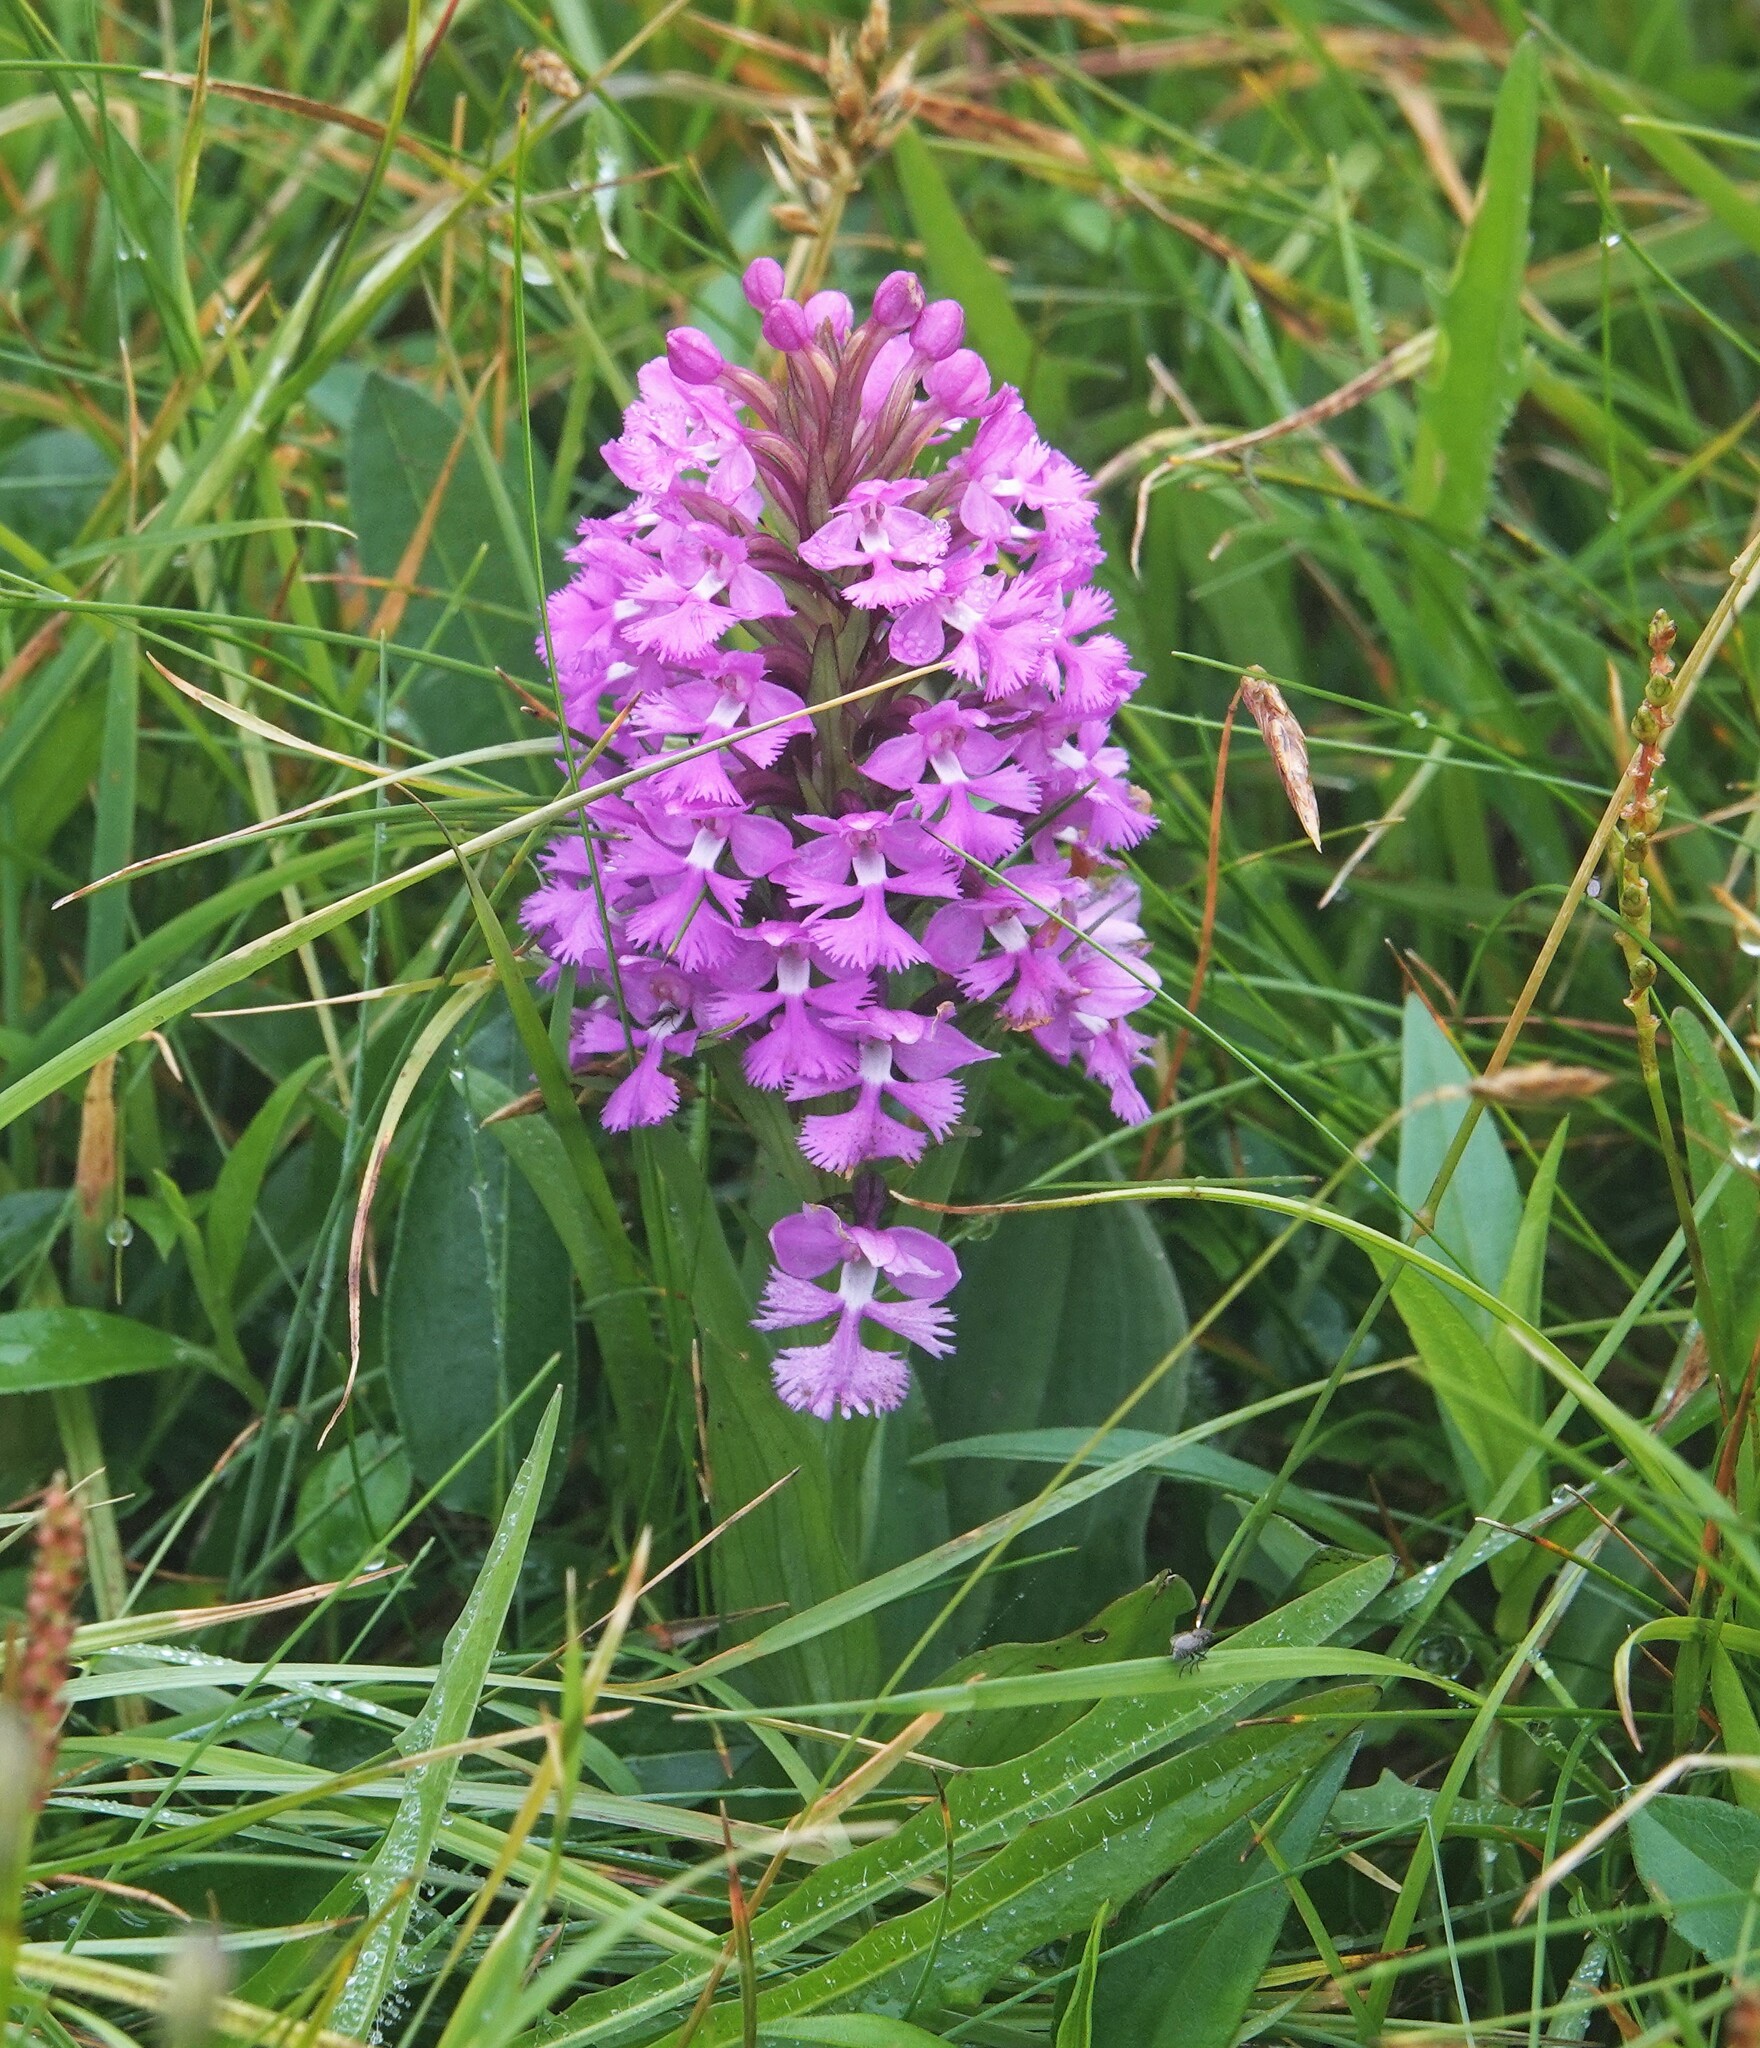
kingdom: Plantae
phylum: Tracheophyta
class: Liliopsida
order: Asparagales
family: Orchidaceae
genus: Platanthera
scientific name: Platanthera psycodes
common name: Lesser purple fringed orchid
